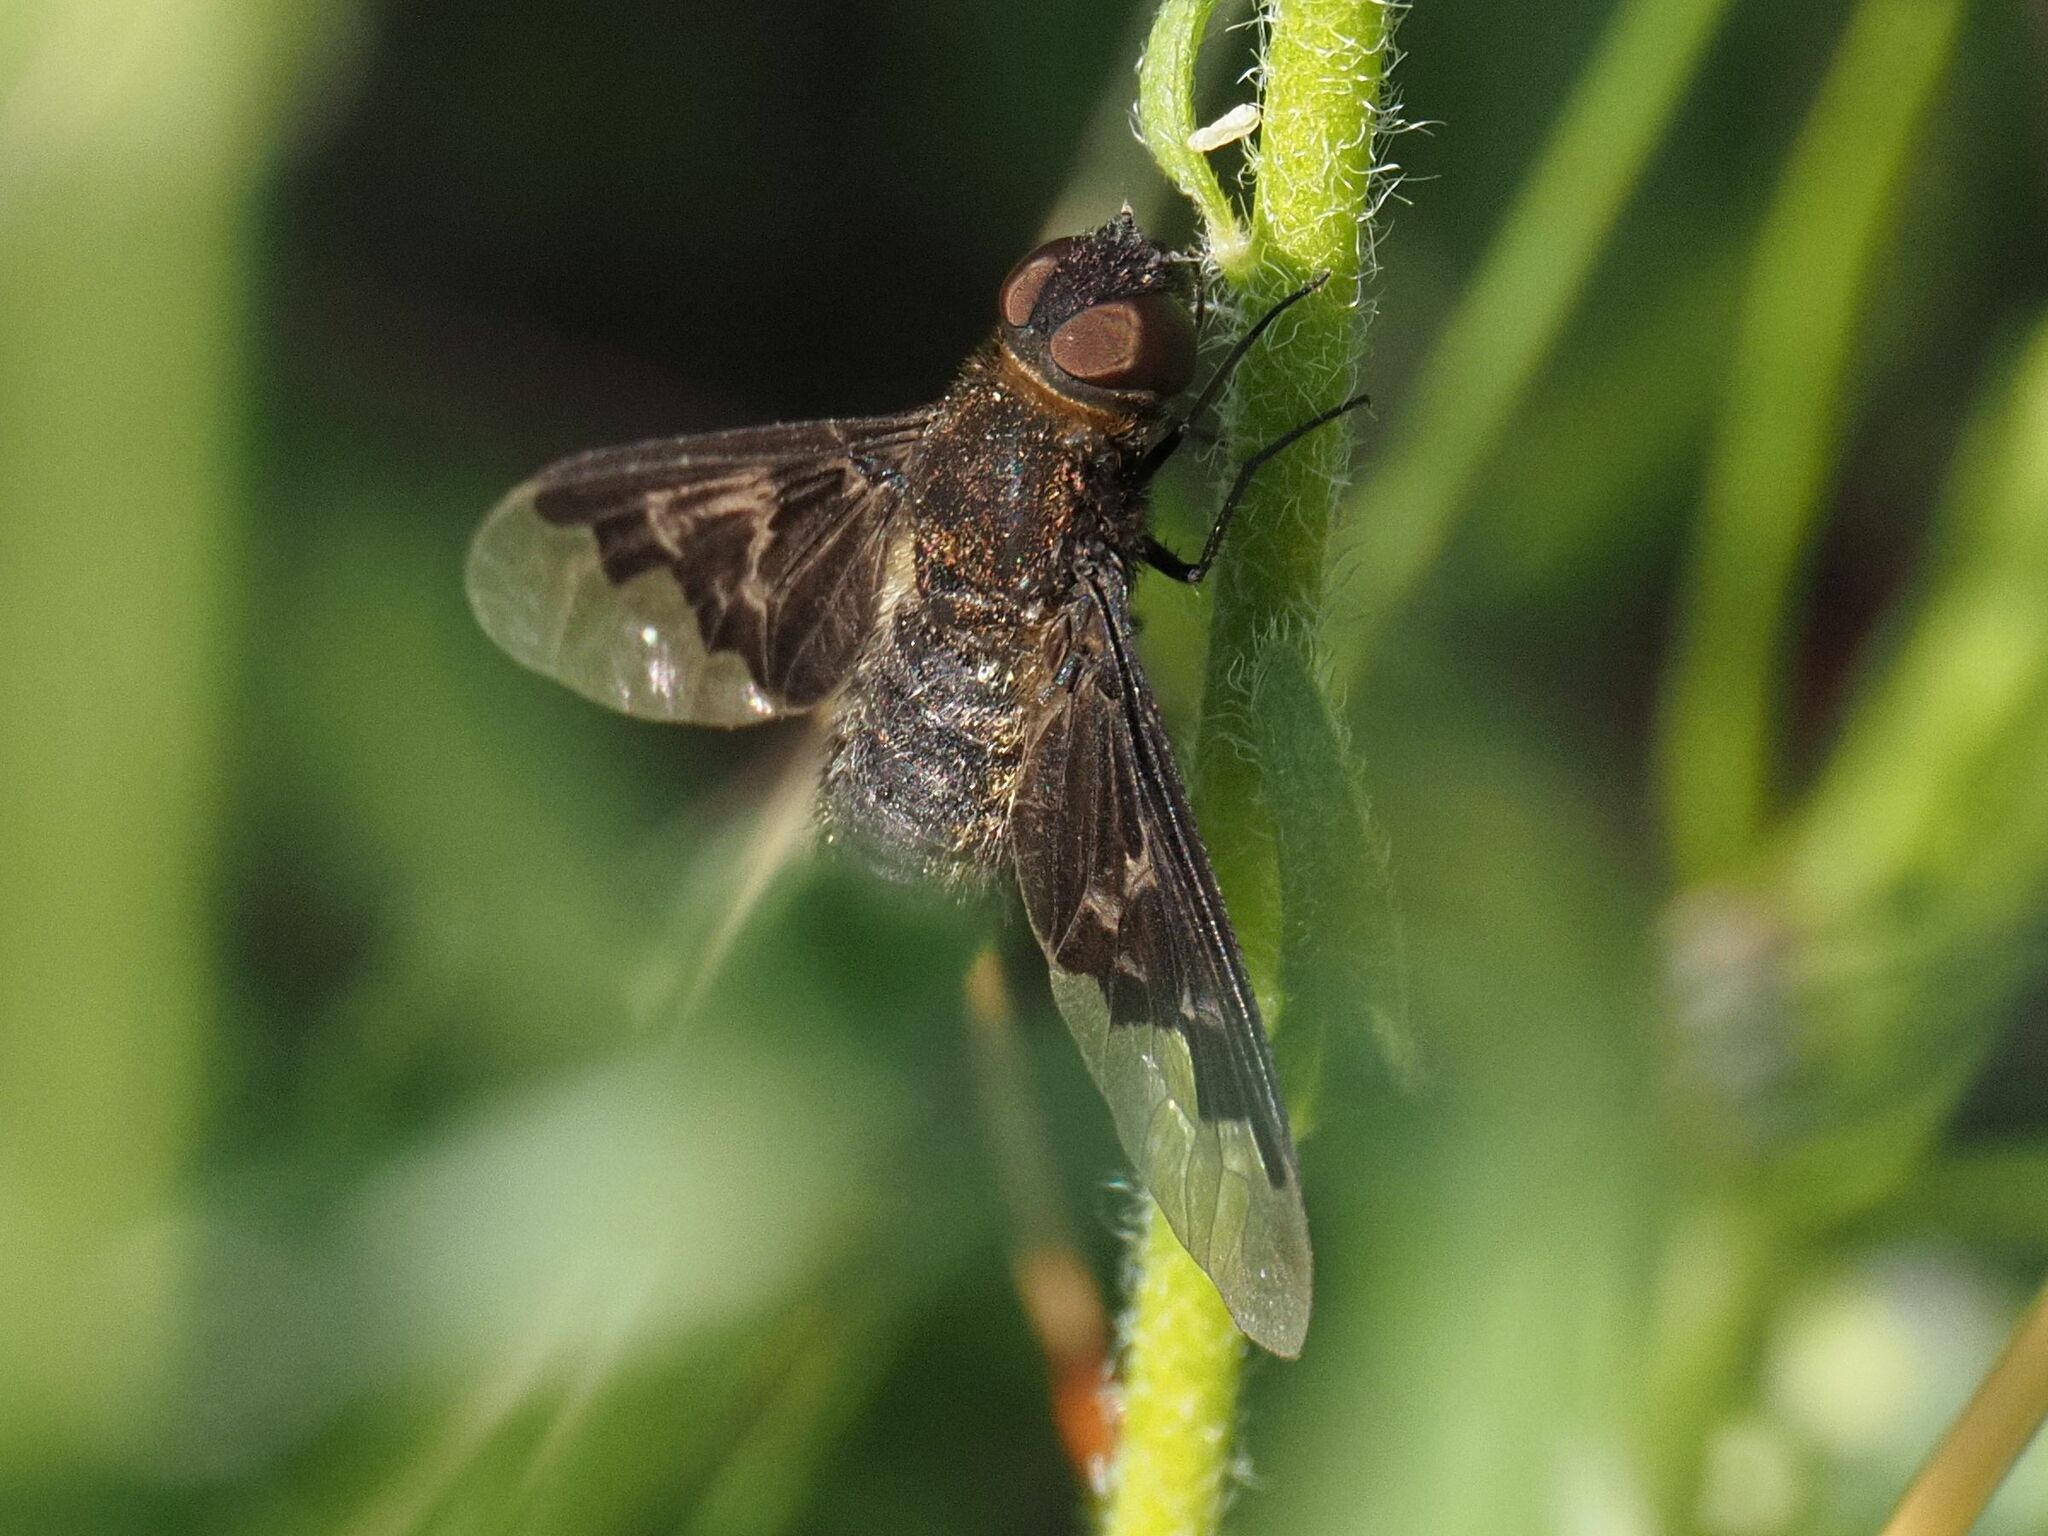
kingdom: Animalia
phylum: Arthropoda
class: Insecta
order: Diptera
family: Bombyliidae
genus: Hemipenthes
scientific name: Hemipenthes morio
